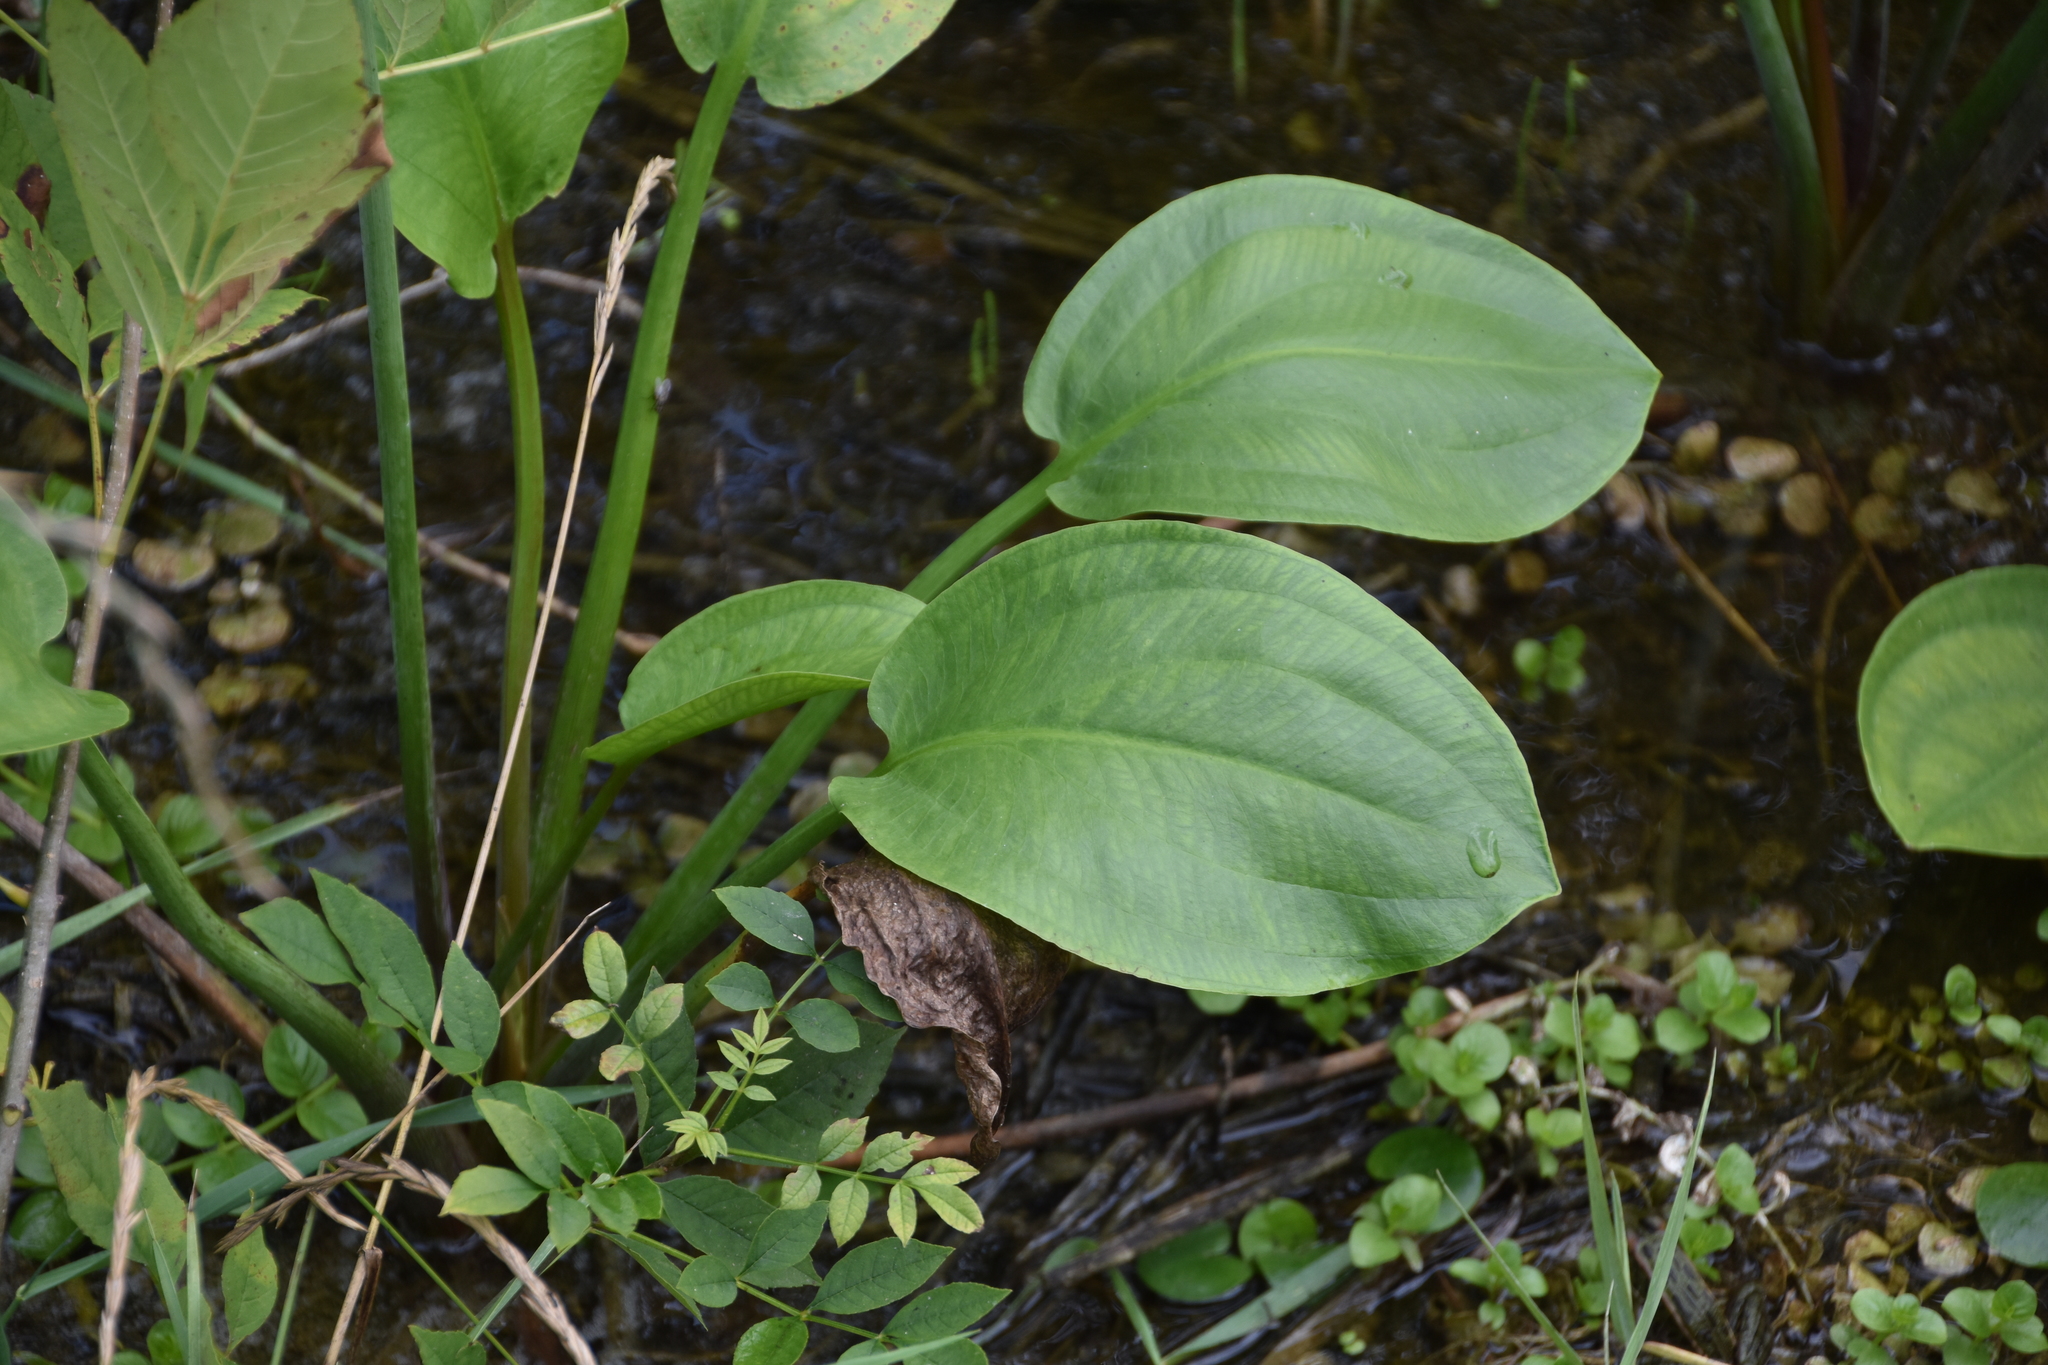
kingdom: Plantae
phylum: Tracheophyta
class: Liliopsida
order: Alismatales
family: Alismataceae
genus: Alisma
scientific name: Alisma subcordatum
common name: Southern water-plantain
